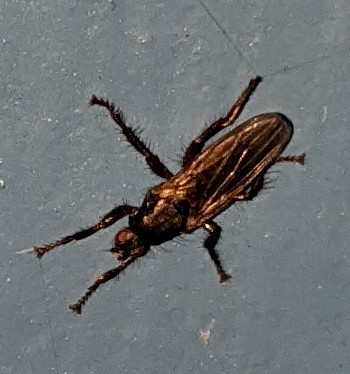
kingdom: Animalia
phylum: Arthropoda
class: Insecta
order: Diptera
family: Coelopidae
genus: Coelopa
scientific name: Coelopa frigida
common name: Kelp fly
